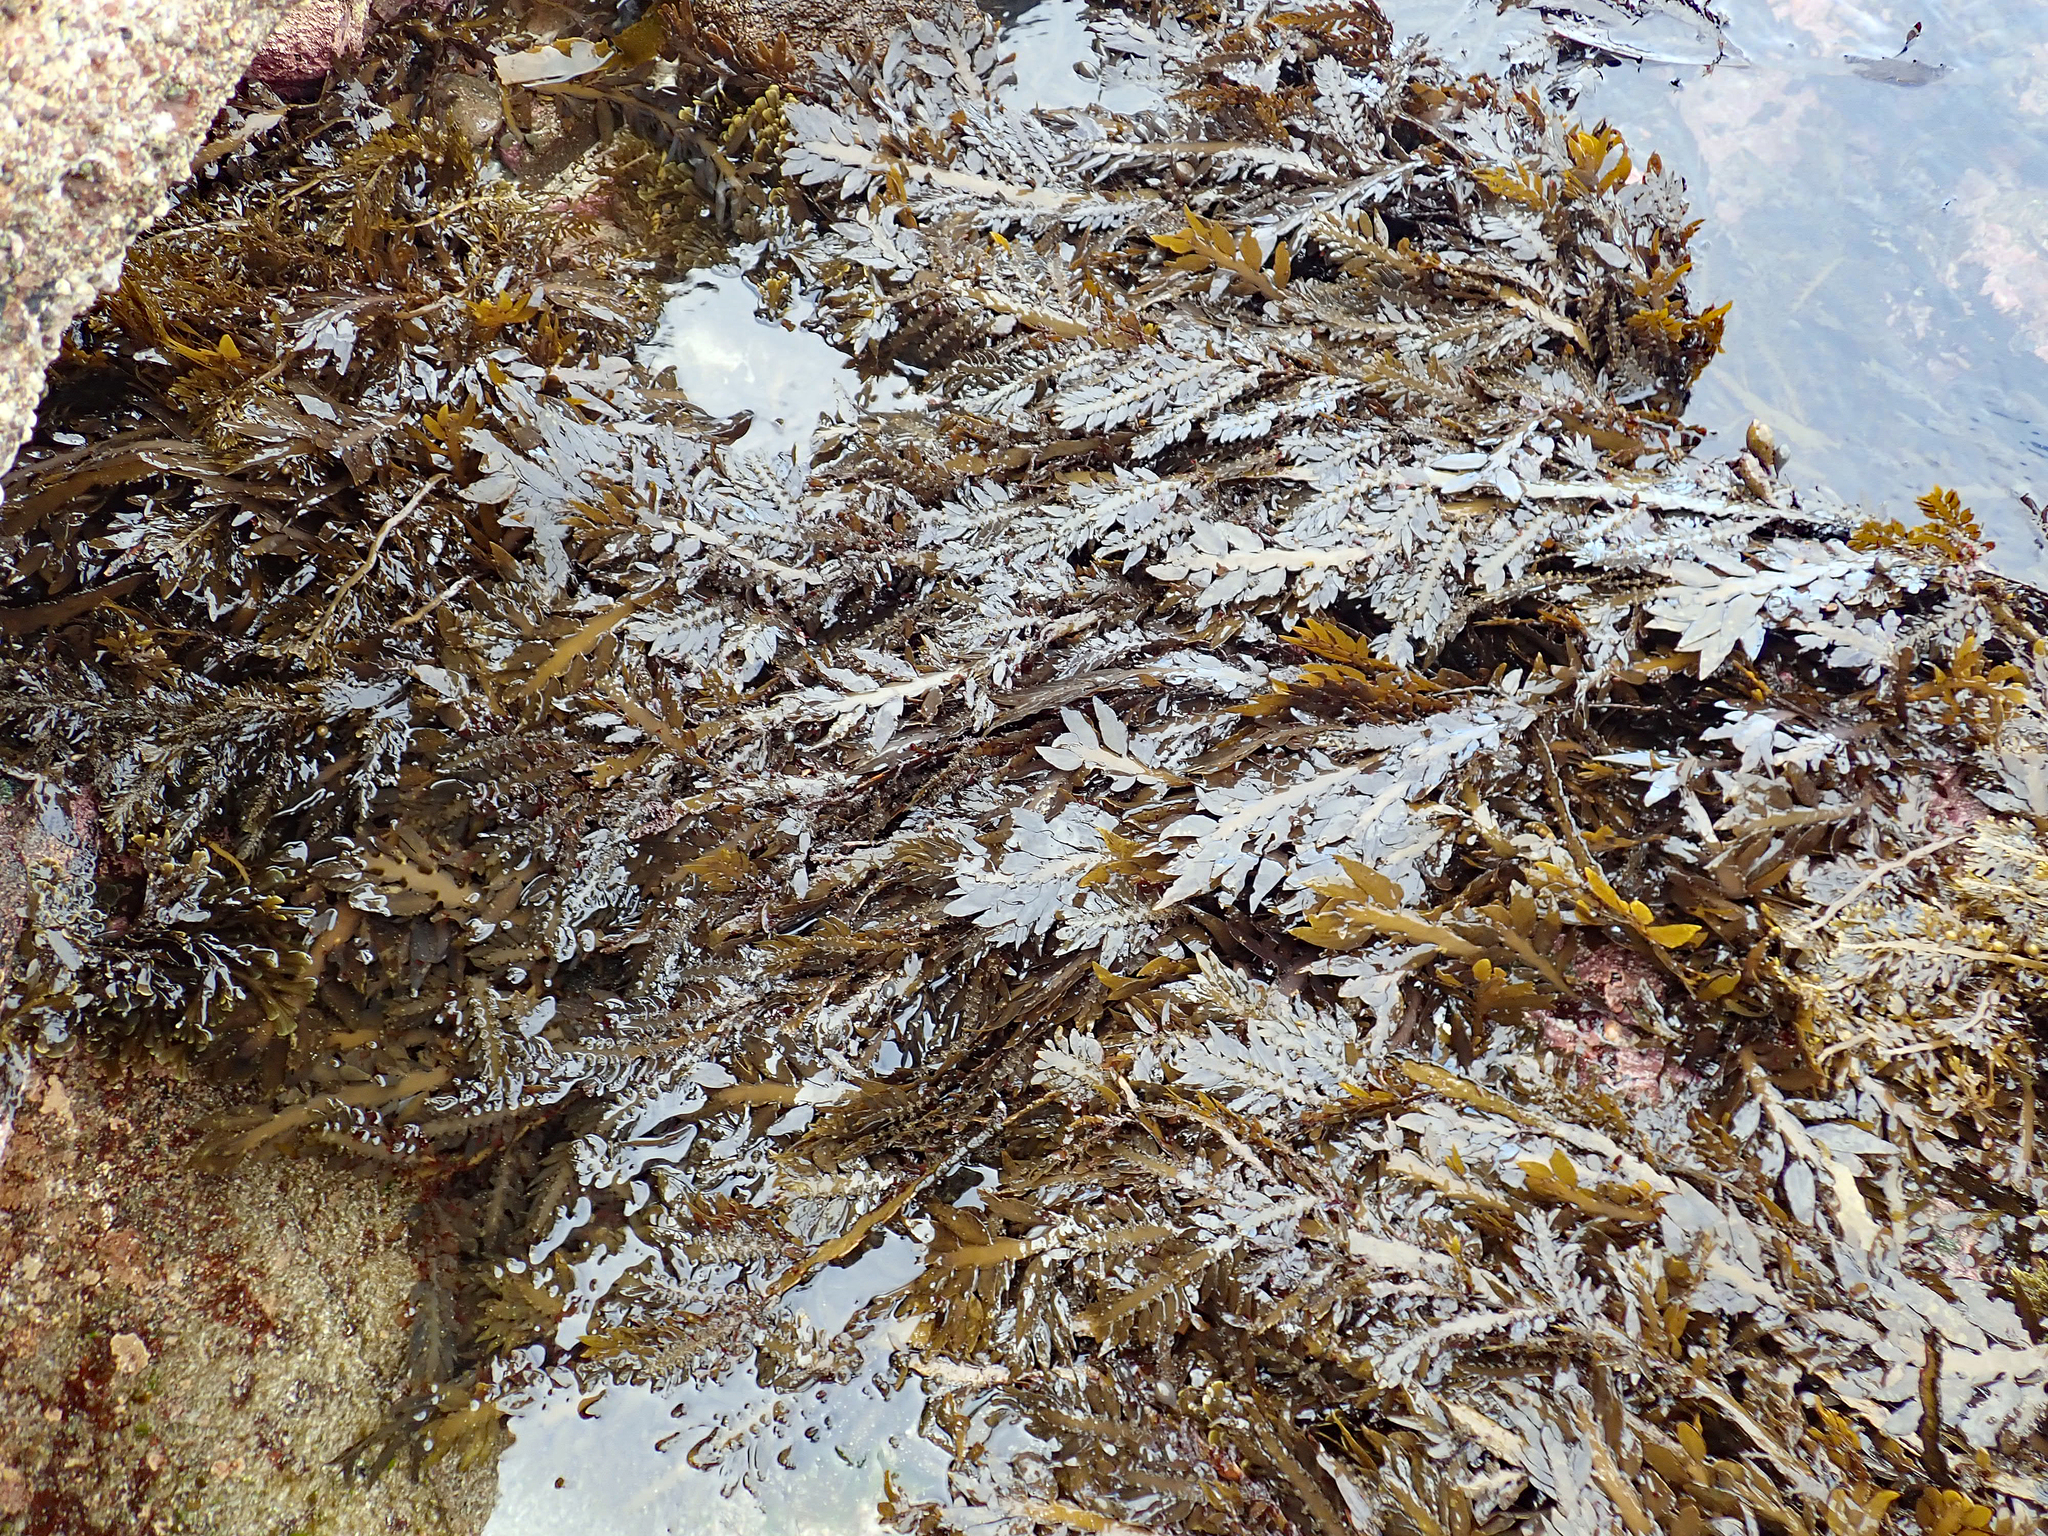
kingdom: Chromista
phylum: Ochrophyta
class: Phaeophyceae
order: Fucales
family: Sargassaceae
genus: Carpophyllum
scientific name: Carpophyllum maschalocarpum
